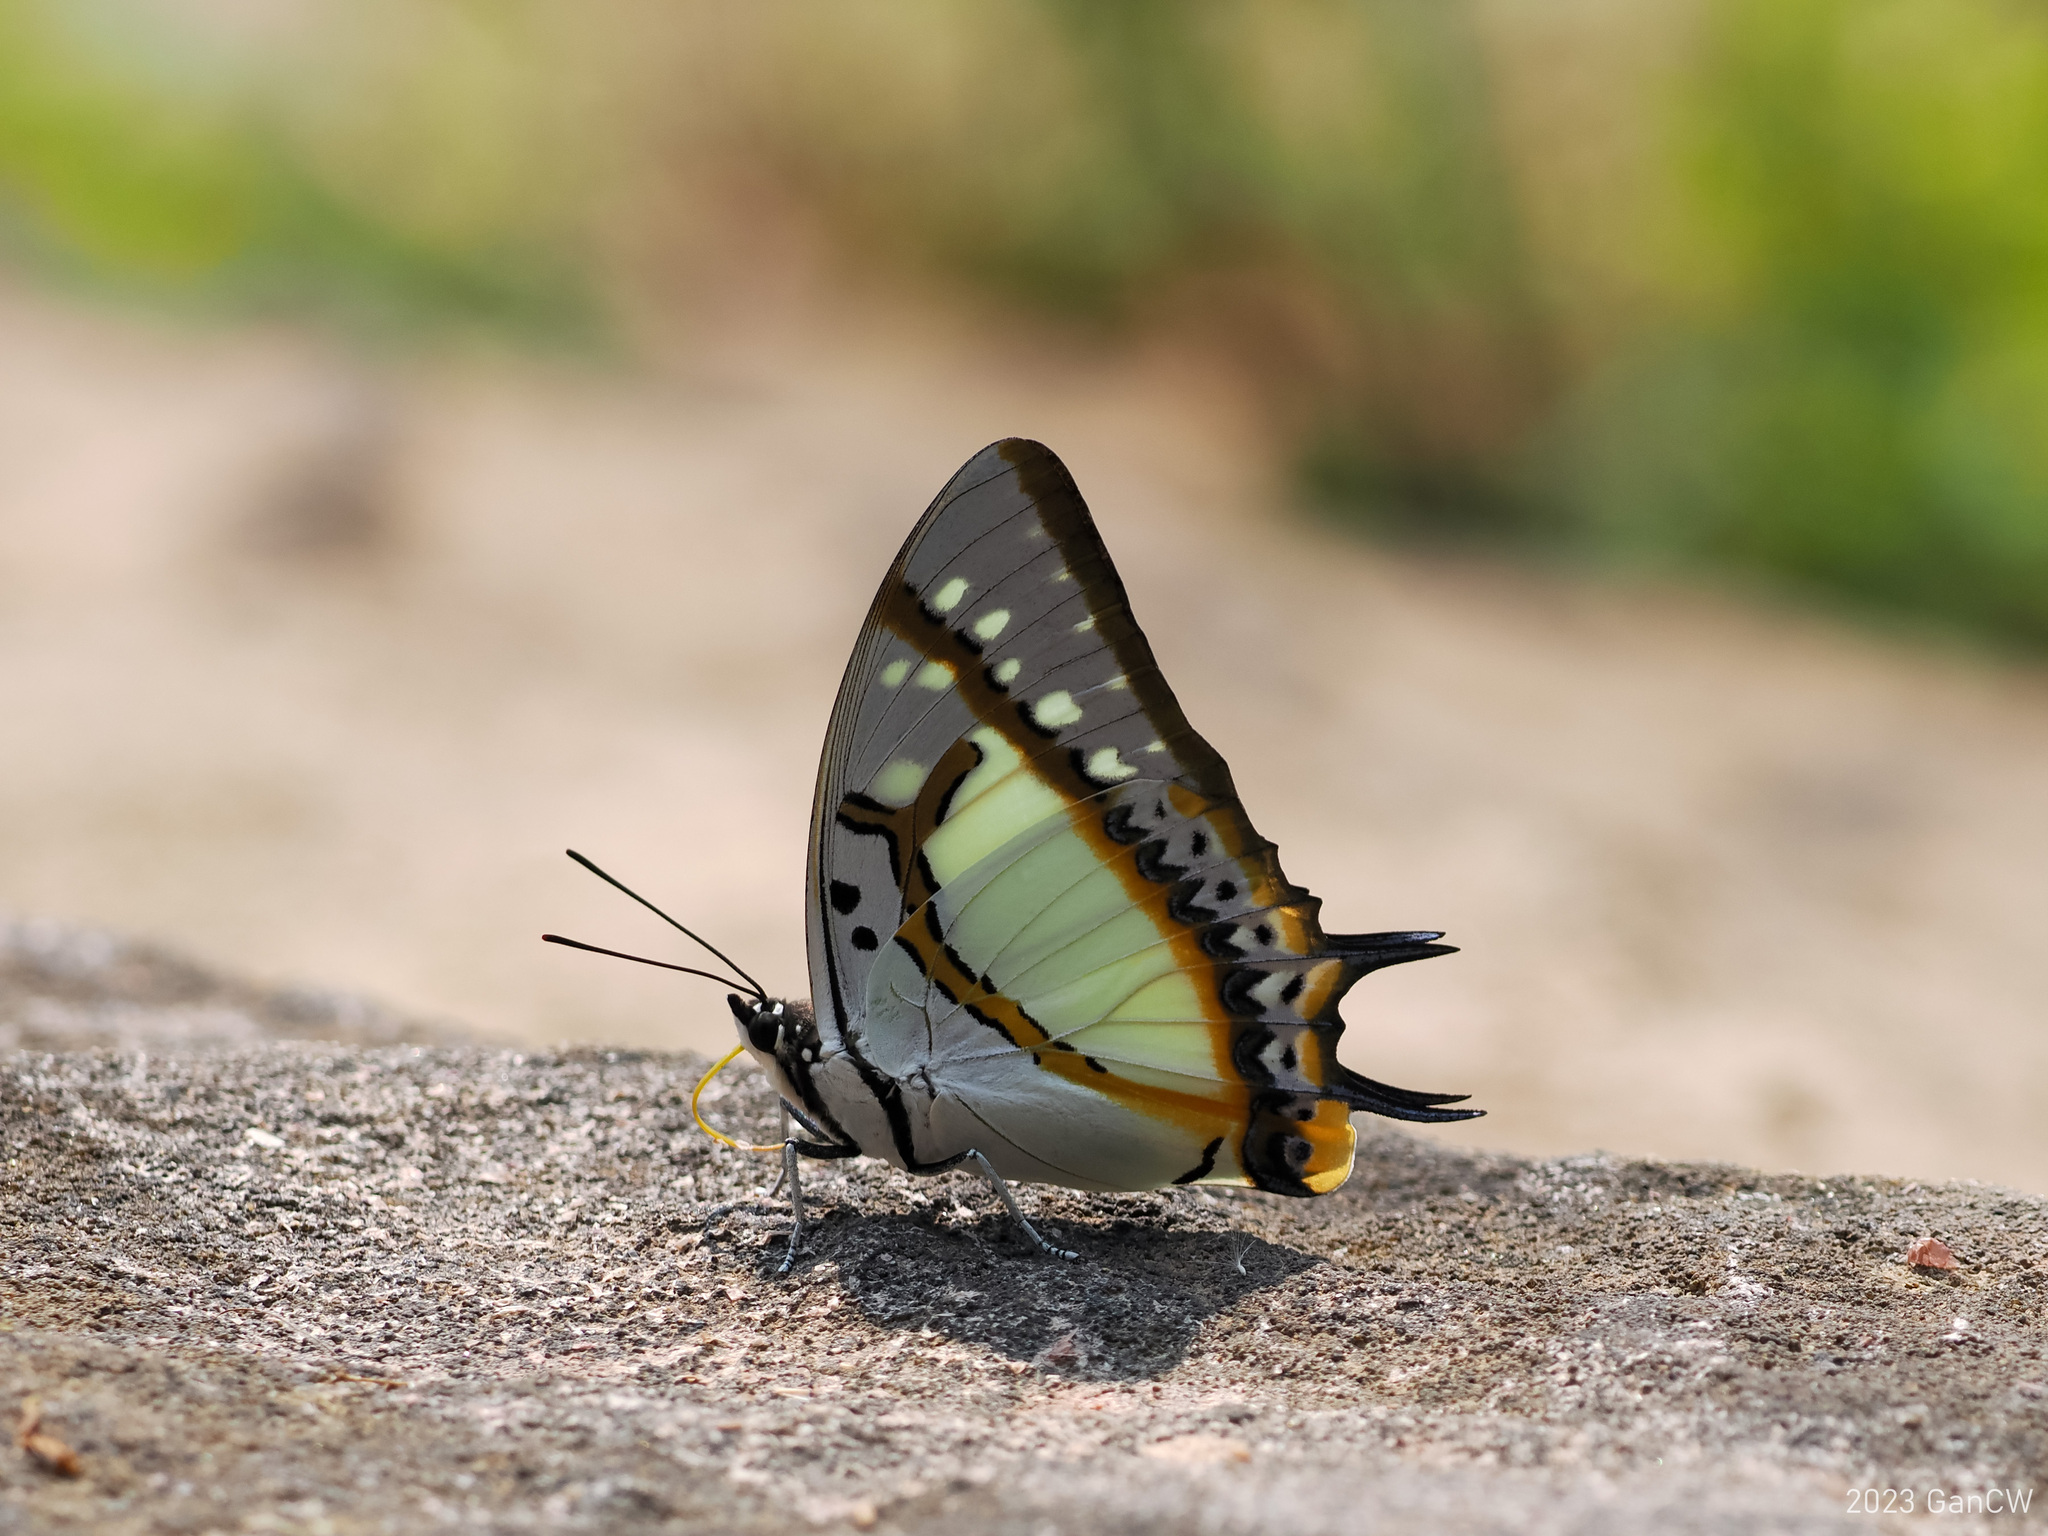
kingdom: Animalia
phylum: Arthropoda
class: Insecta
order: Lepidoptera
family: Nymphalidae
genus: Polyura
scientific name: Polyura eudamippus
